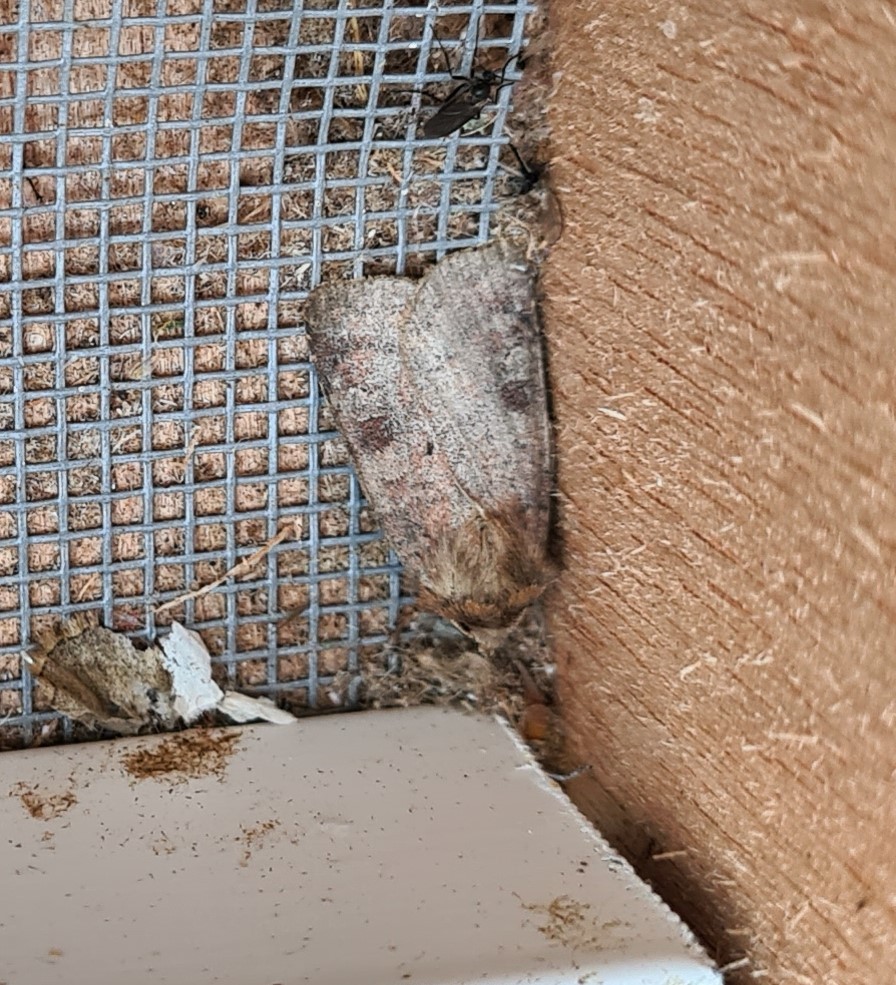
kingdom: Animalia
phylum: Arthropoda
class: Insecta
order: Lepidoptera
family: Noctuidae
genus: Diarsia
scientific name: Diarsia rubi
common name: Small square-spot
